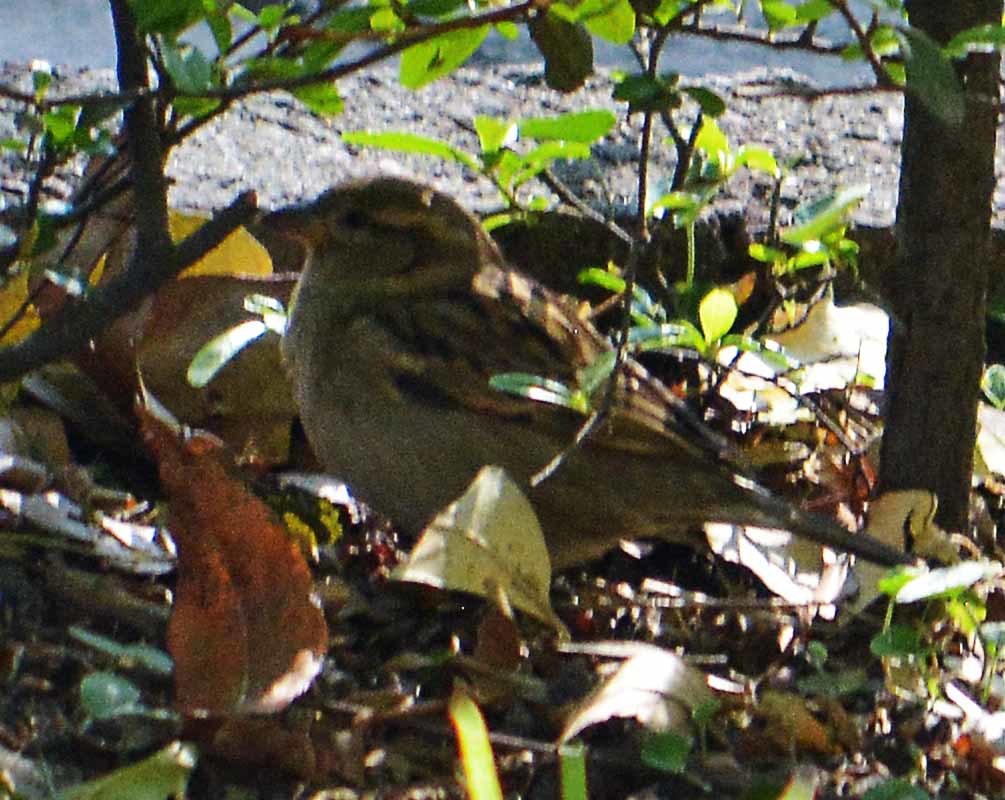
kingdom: Animalia
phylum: Chordata
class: Aves
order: Passeriformes
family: Passeridae
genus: Passer
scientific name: Passer domesticus
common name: House sparrow
